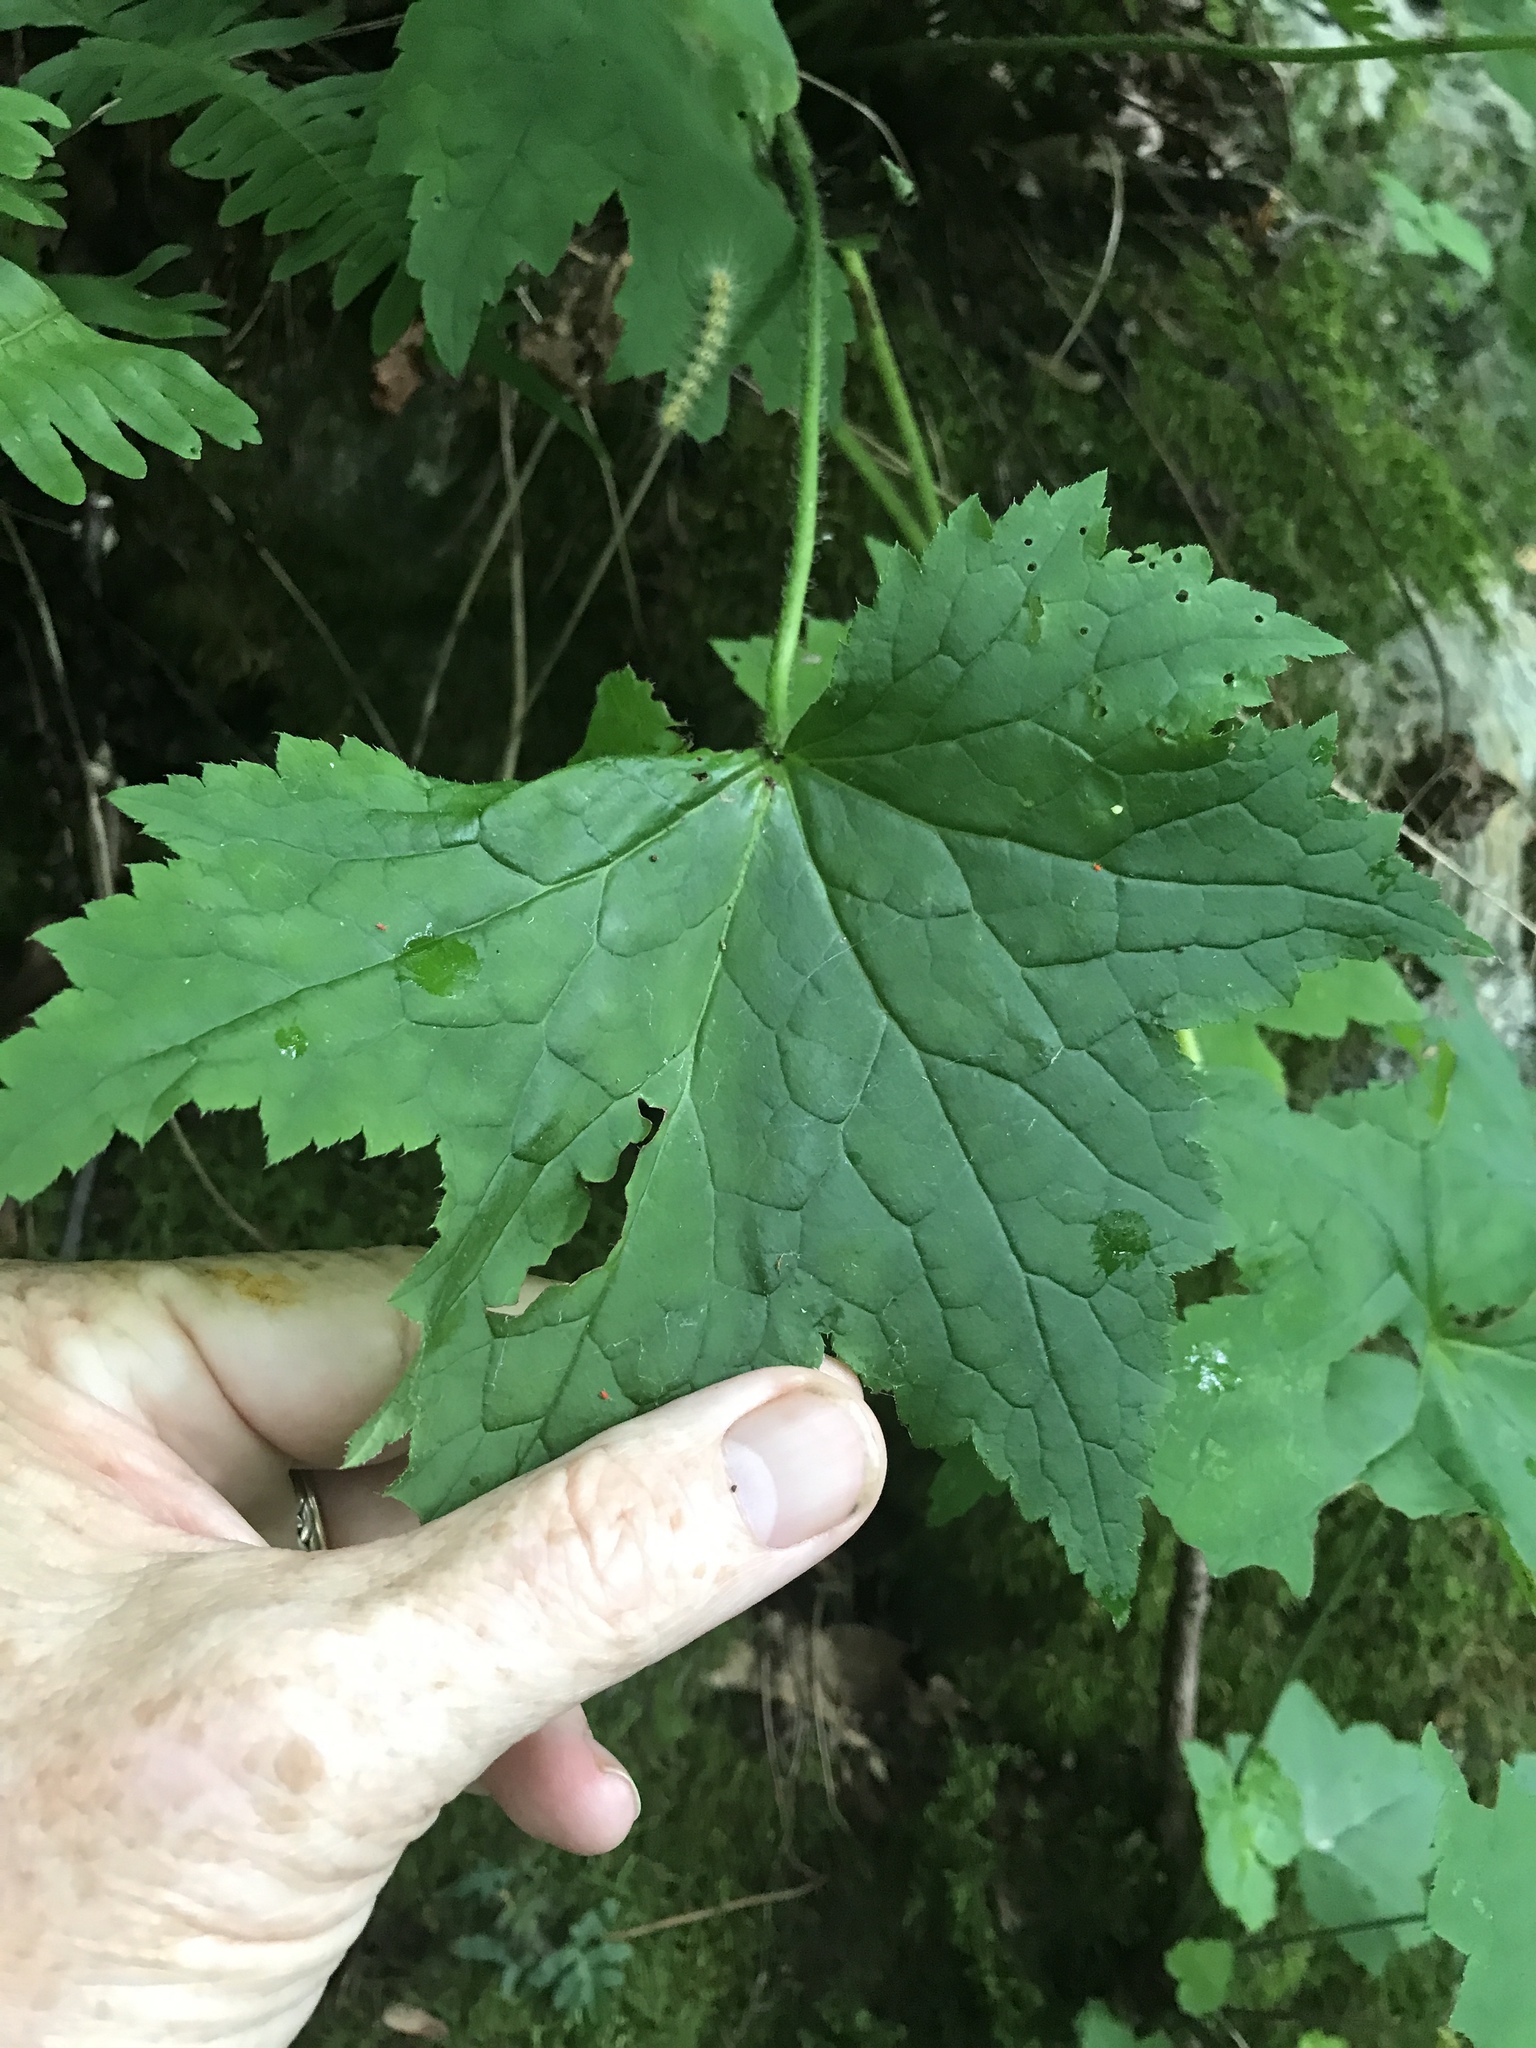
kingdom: Plantae
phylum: Tracheophyta
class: Magnoliopsida
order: Saxifragales
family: Saxifragaceae
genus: Heuchera
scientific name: Heuchera villosa
